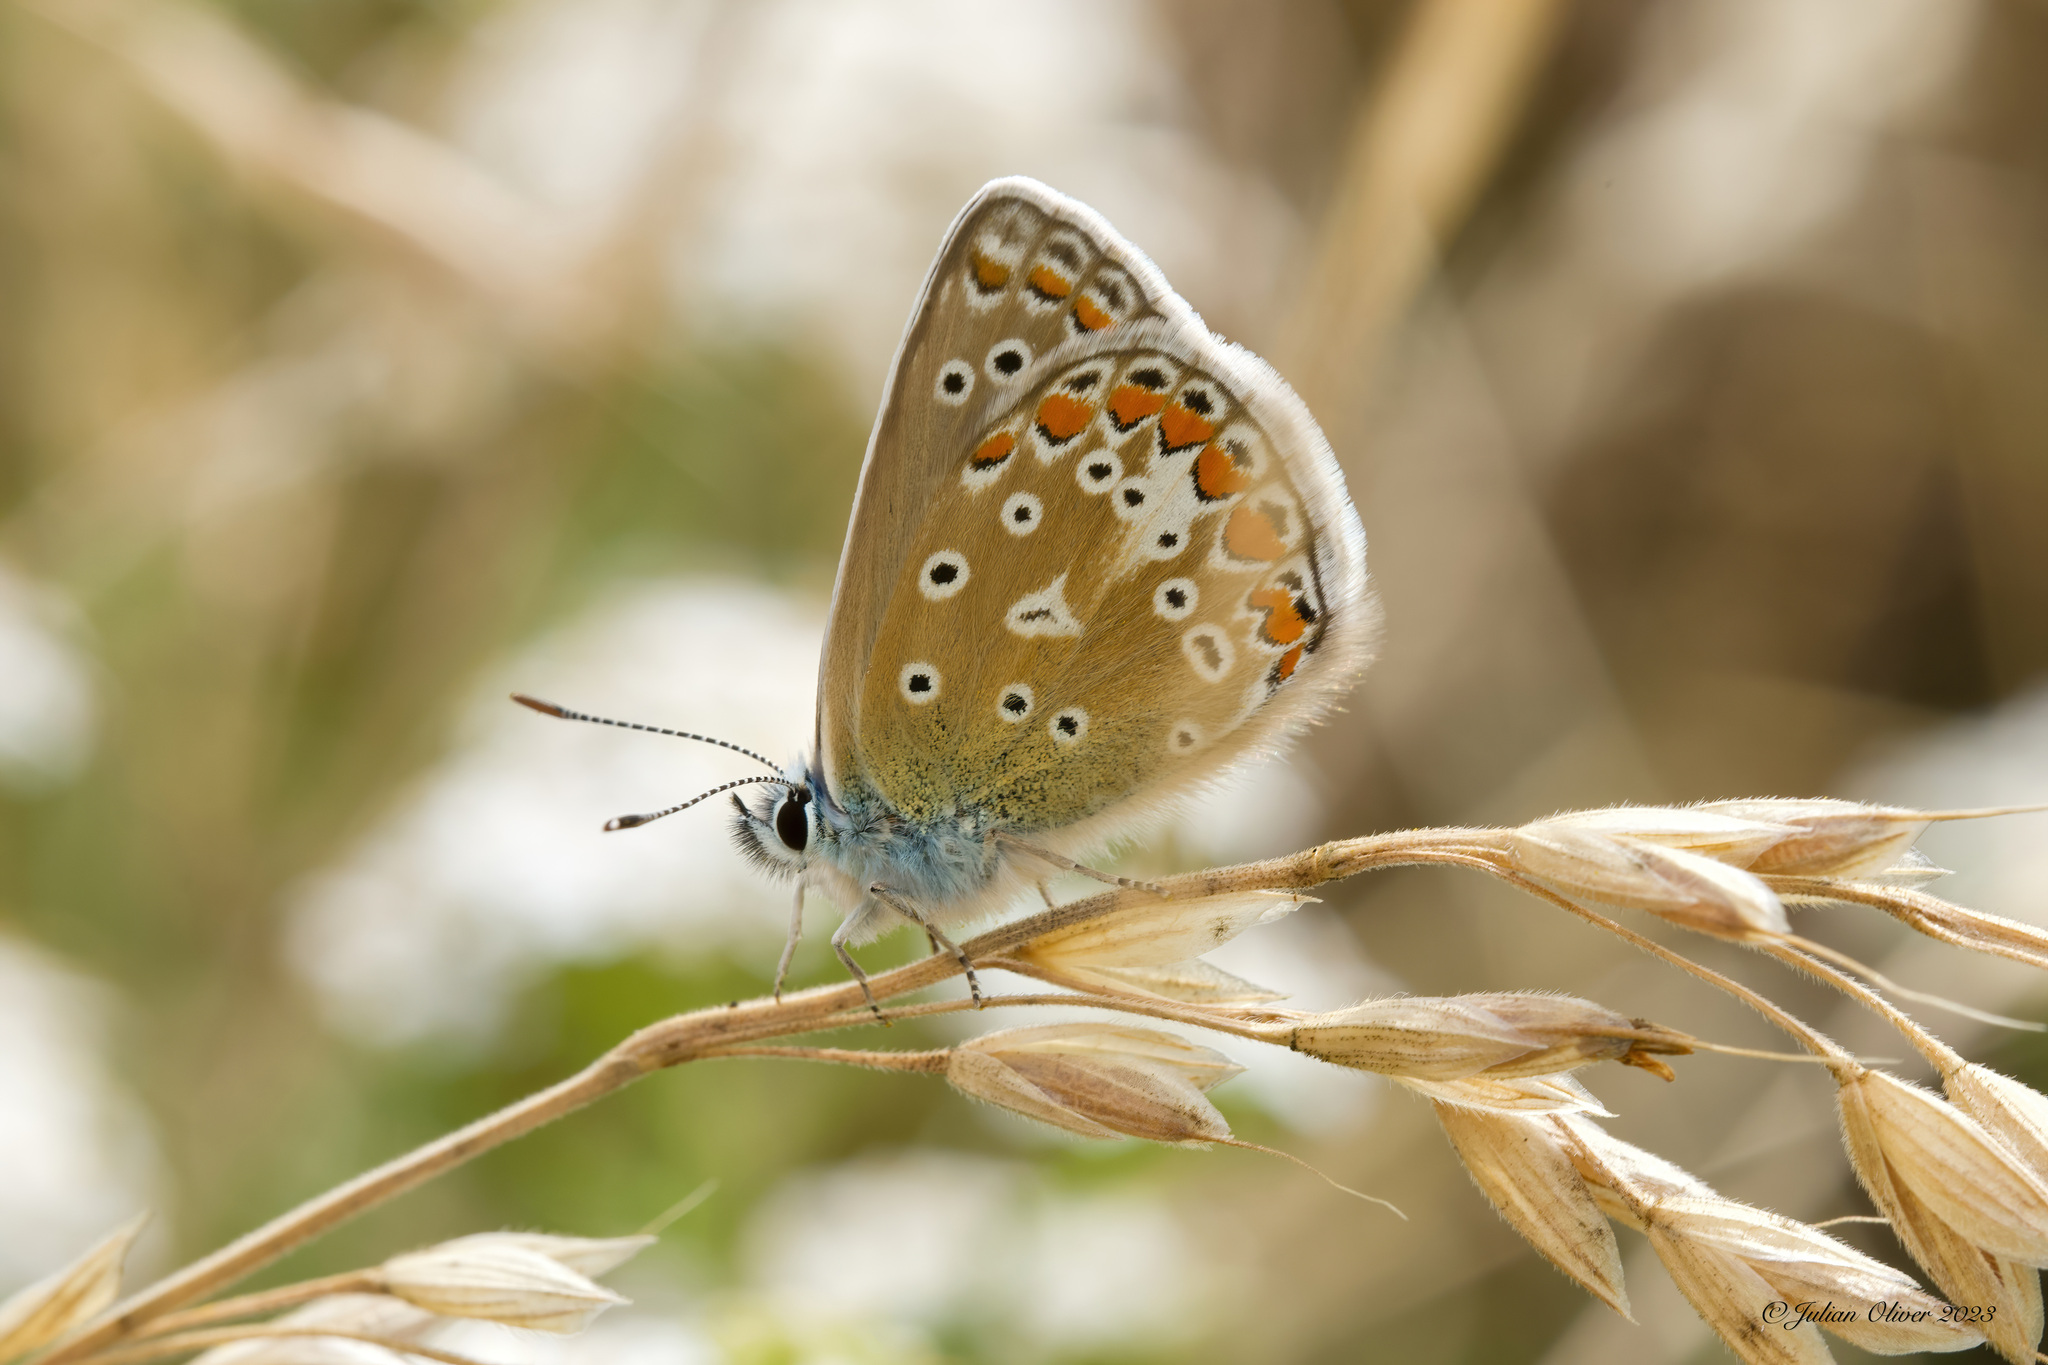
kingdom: Animalia
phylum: Arthropoda
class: Insecta
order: Lepidoptera
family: Lycaenidae
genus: Polyommatus
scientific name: Polyommatus icarus
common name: Common blue
